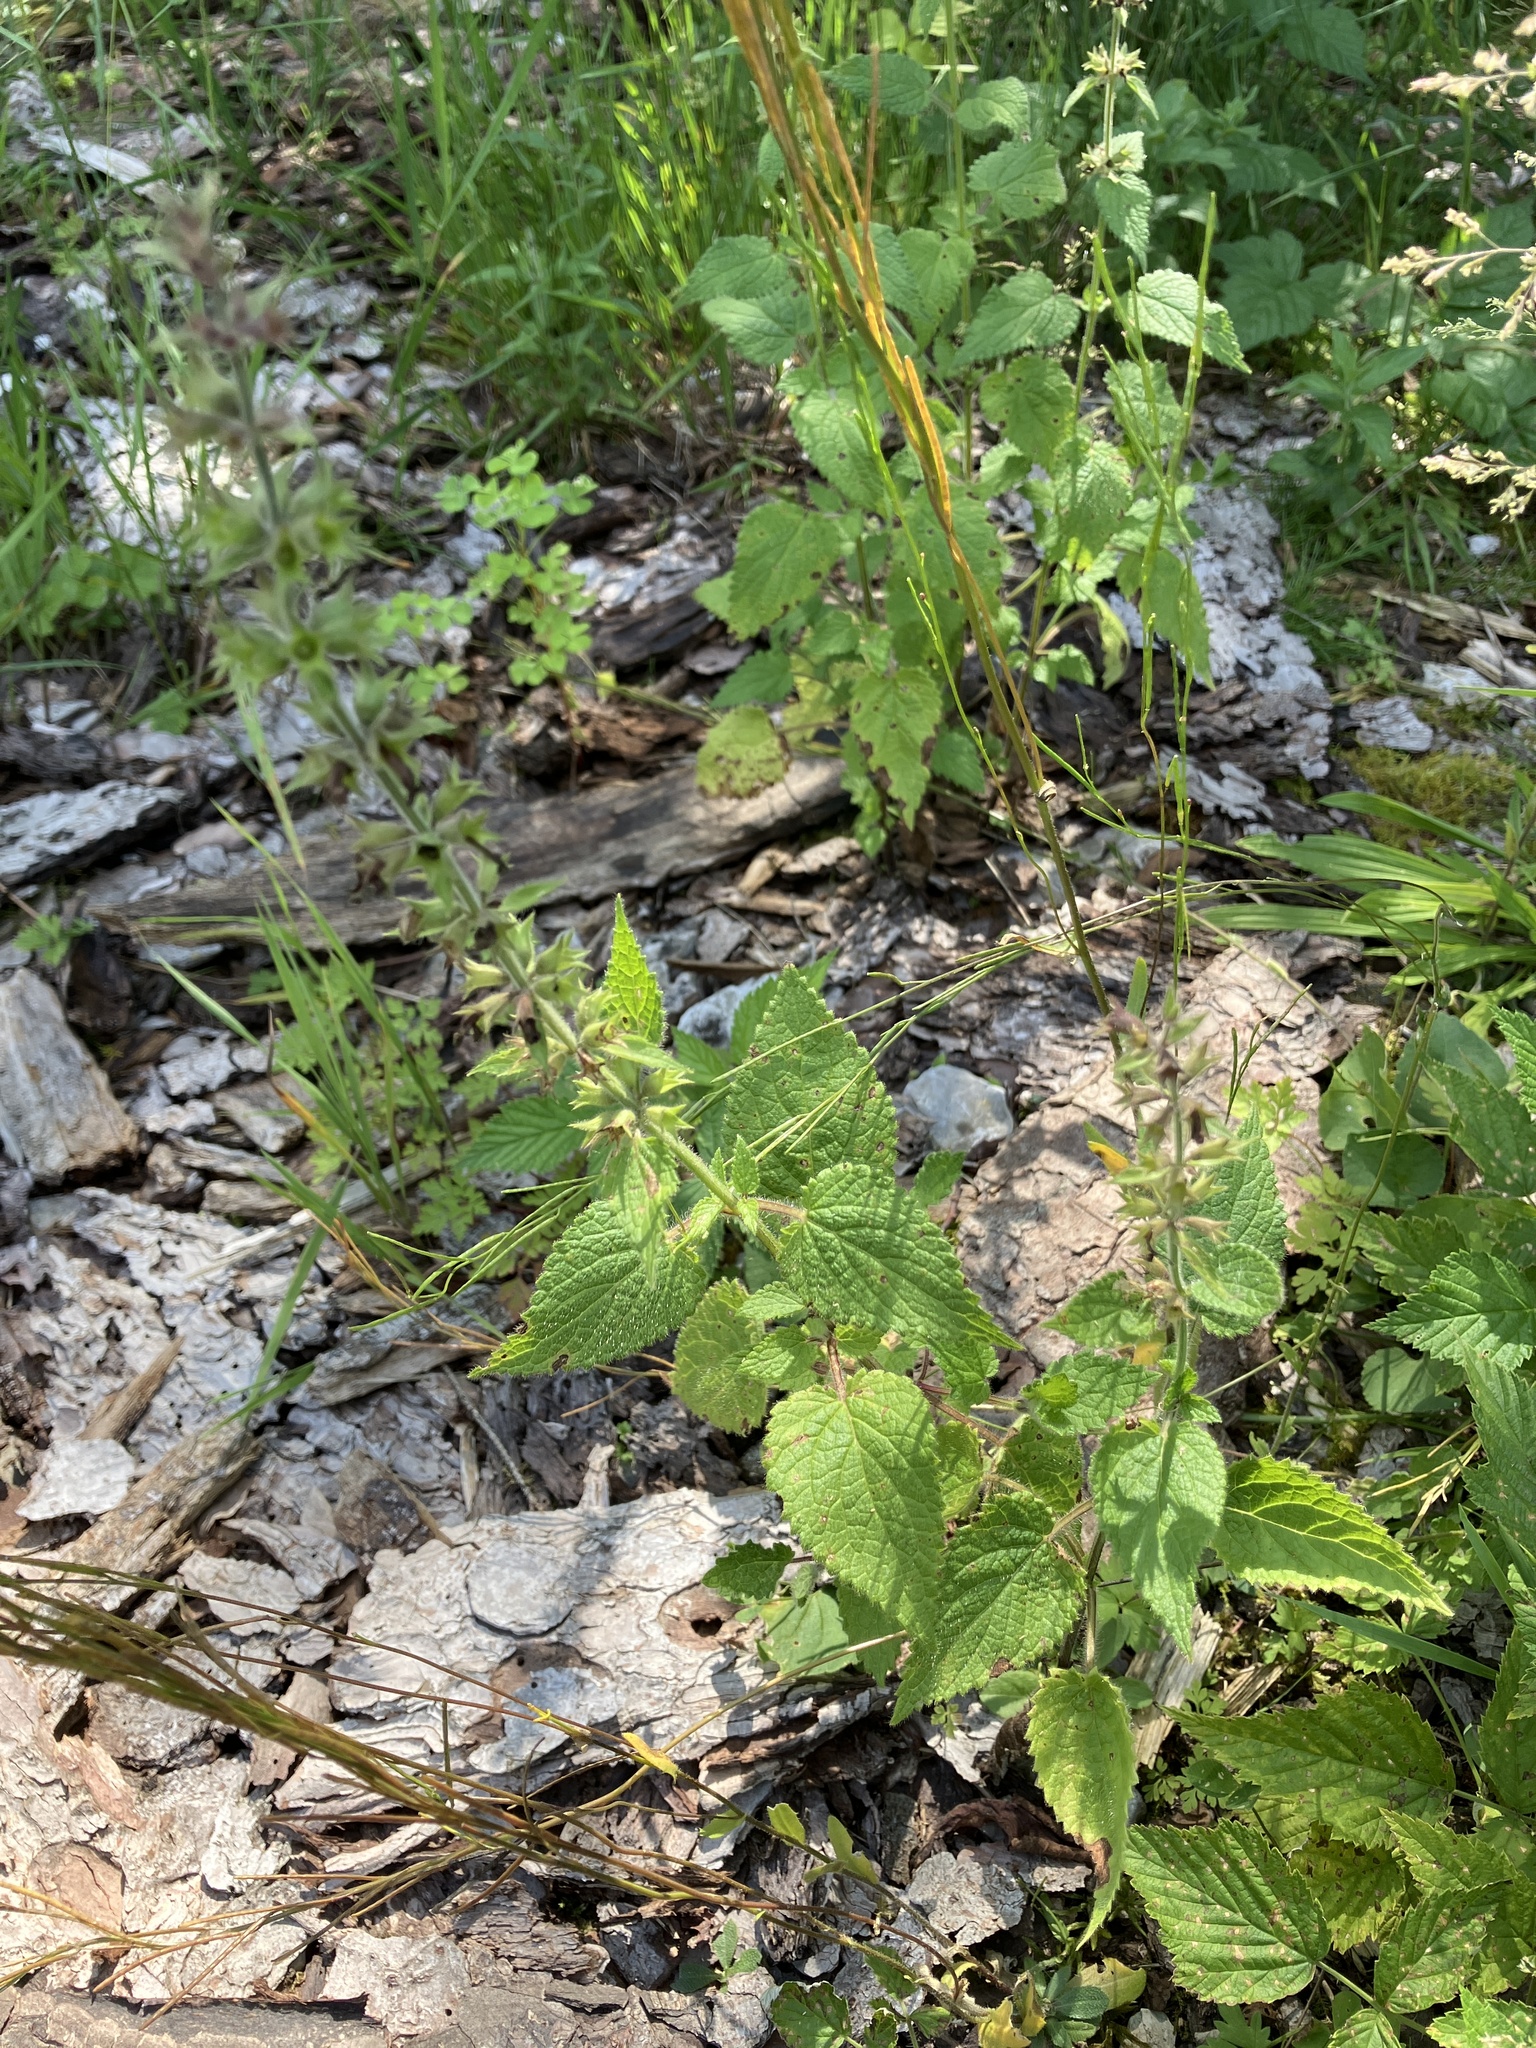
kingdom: Plantae
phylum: Tracheophyta
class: Magnoliopsida
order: Lamiales
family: Lamiaceae
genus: Stachys
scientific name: Stachys sylvatica
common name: Hedge woundwort
